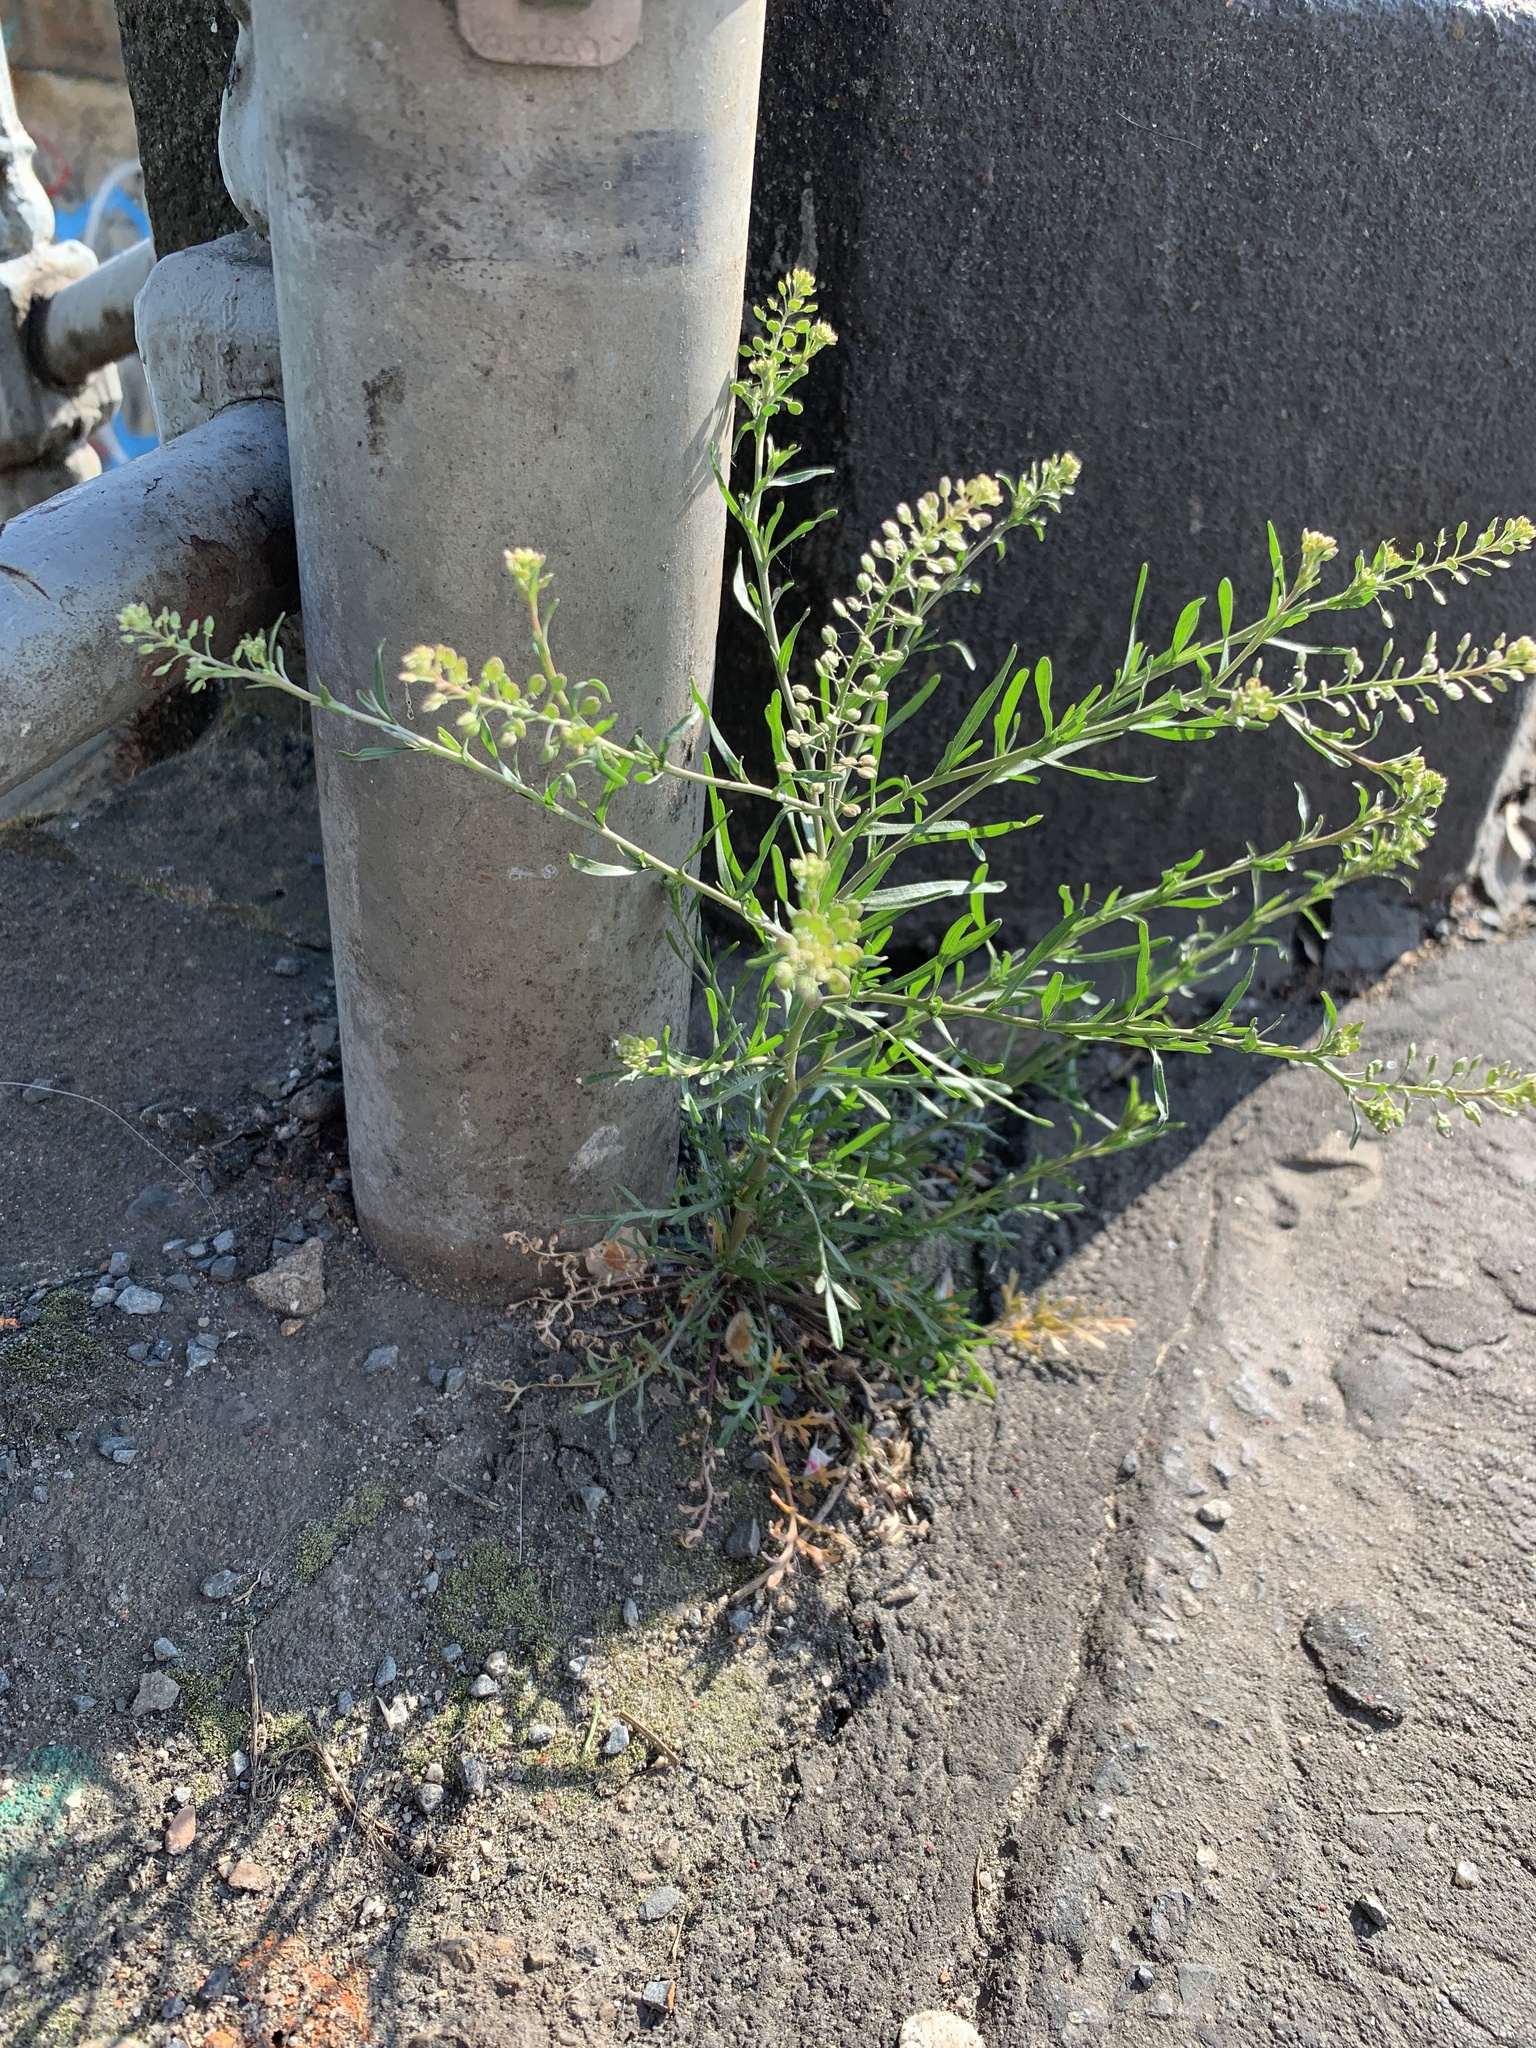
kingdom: Plantae
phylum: Tracheophyta
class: Magnoliopsida
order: Brassicales
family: Brassicaceae
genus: Lepidium
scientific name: Lepidium ruderale
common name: Narrow-leaved pepperwort
